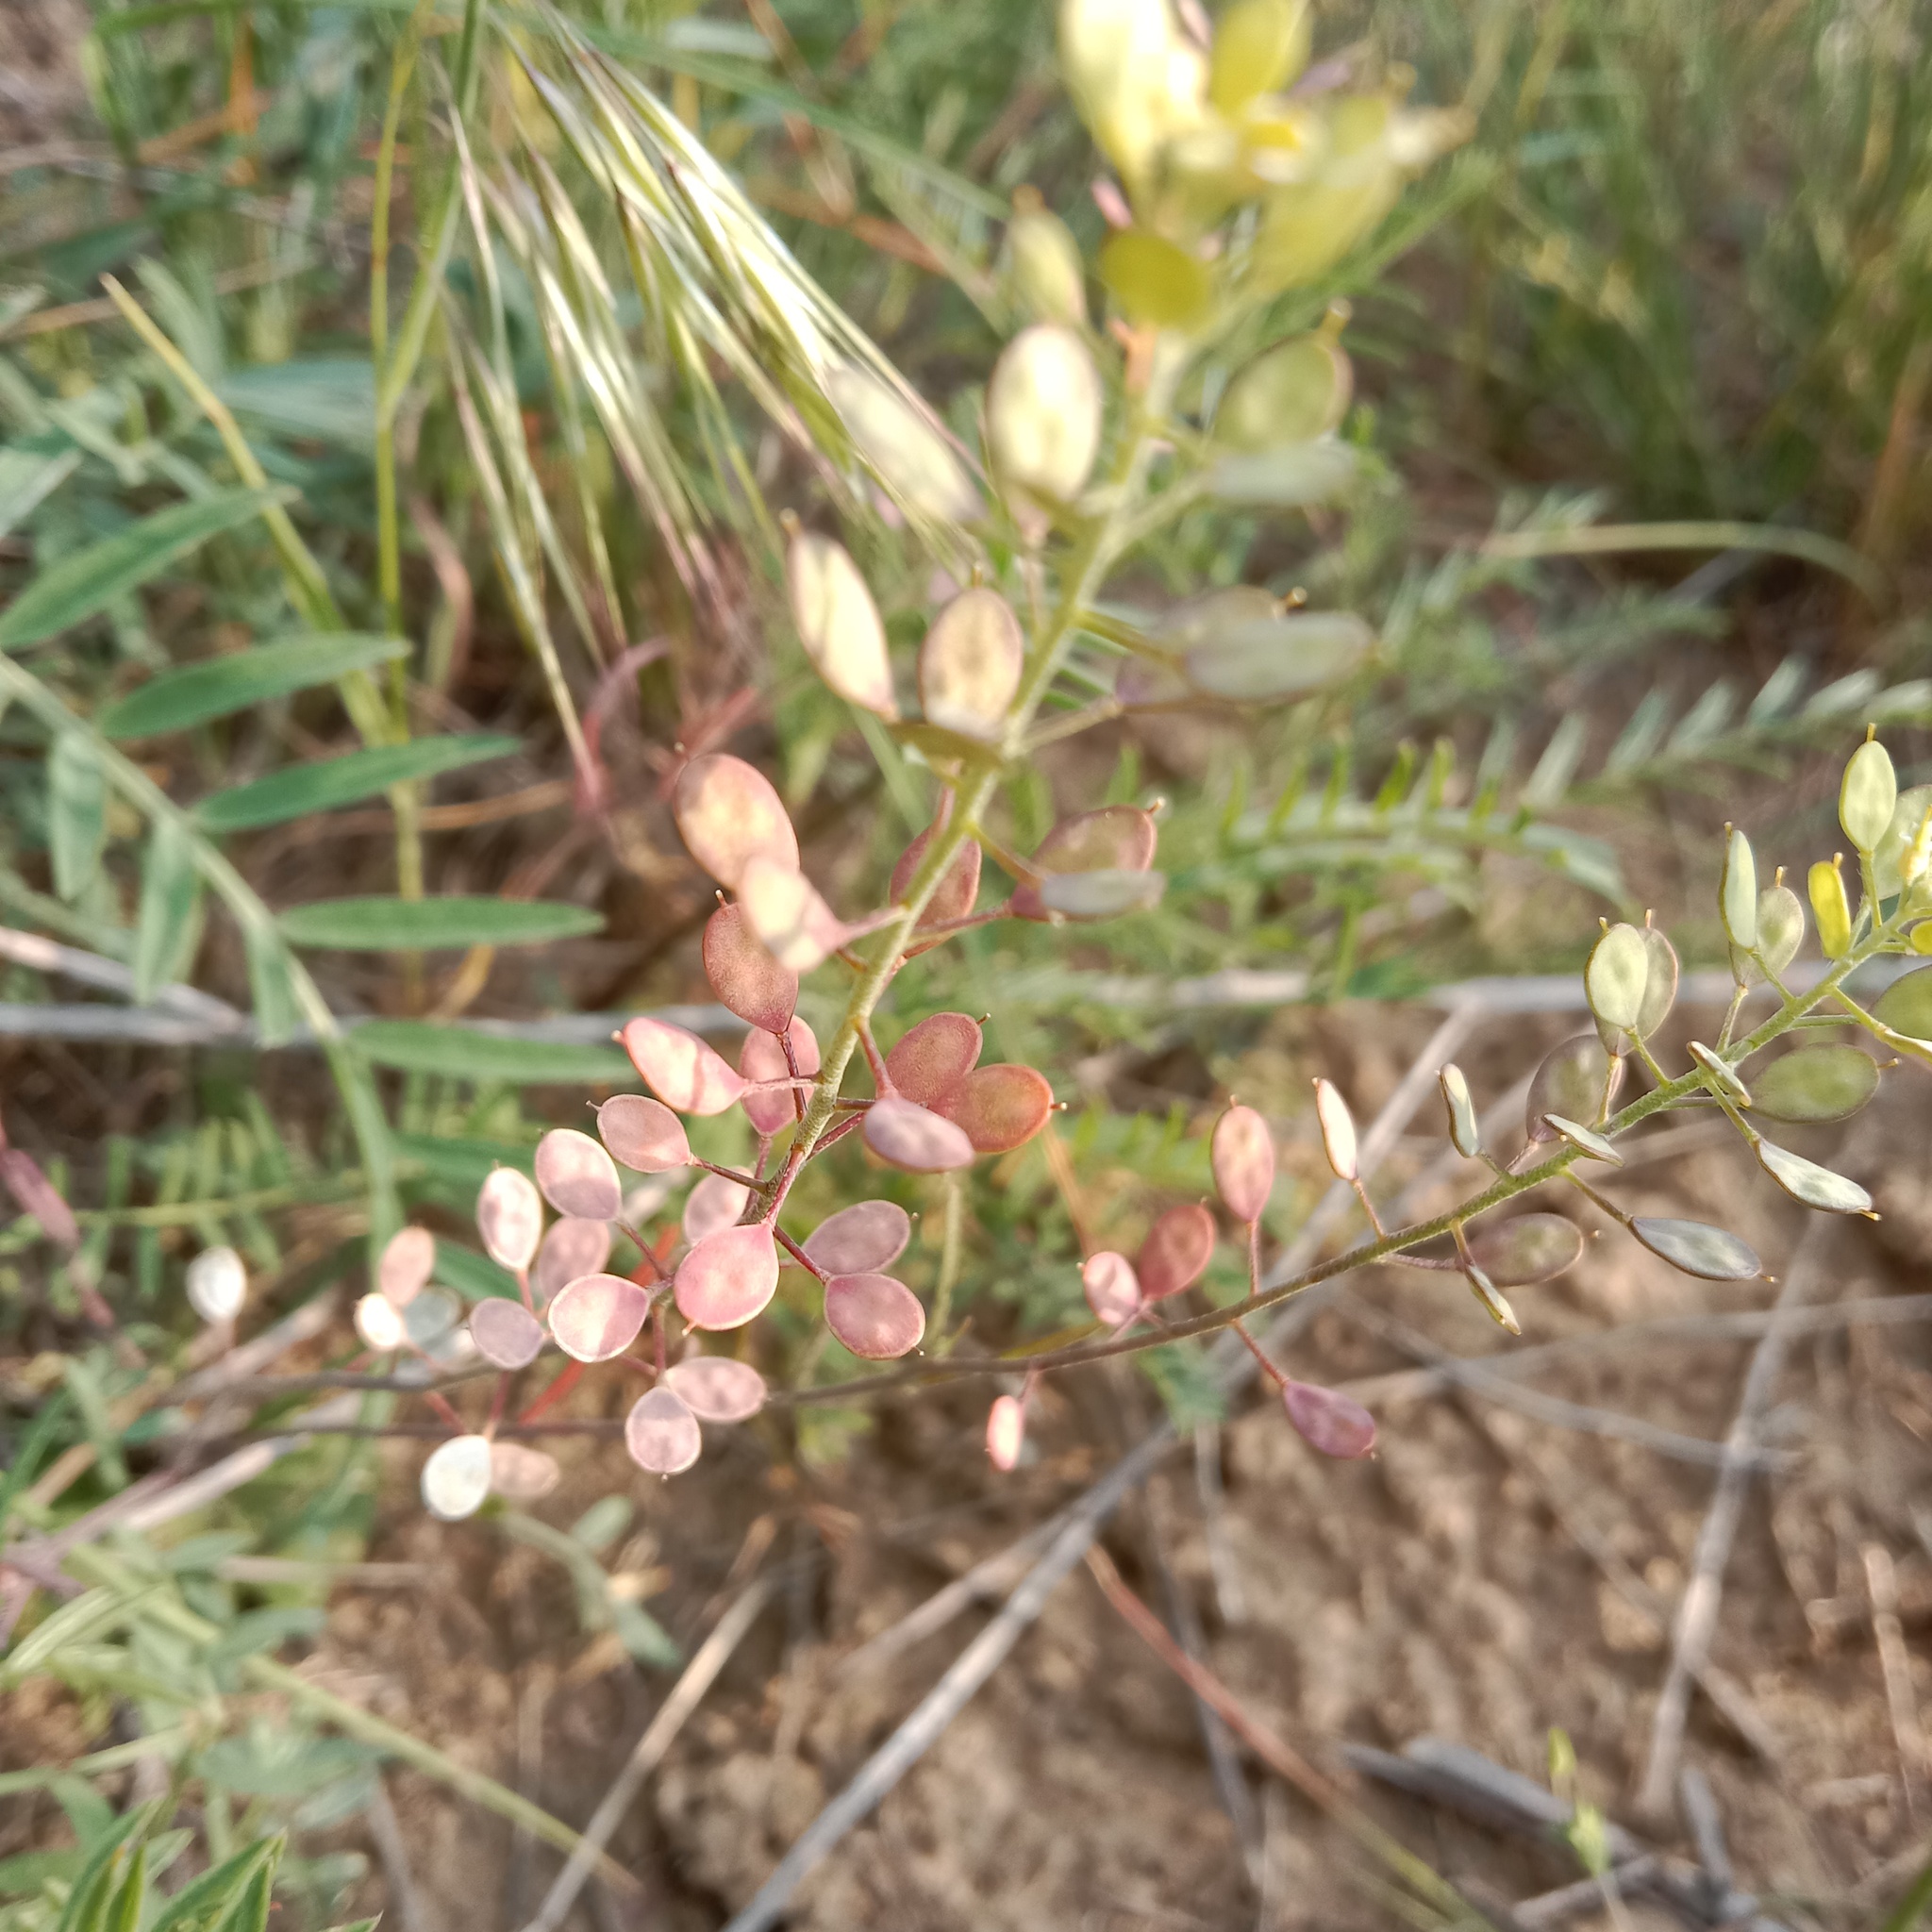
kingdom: Plantae
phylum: Tracheophyta
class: Magnoliopsida
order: Brassicales
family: Brassicaceae
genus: Meniocus
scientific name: Meniocus linifolius
